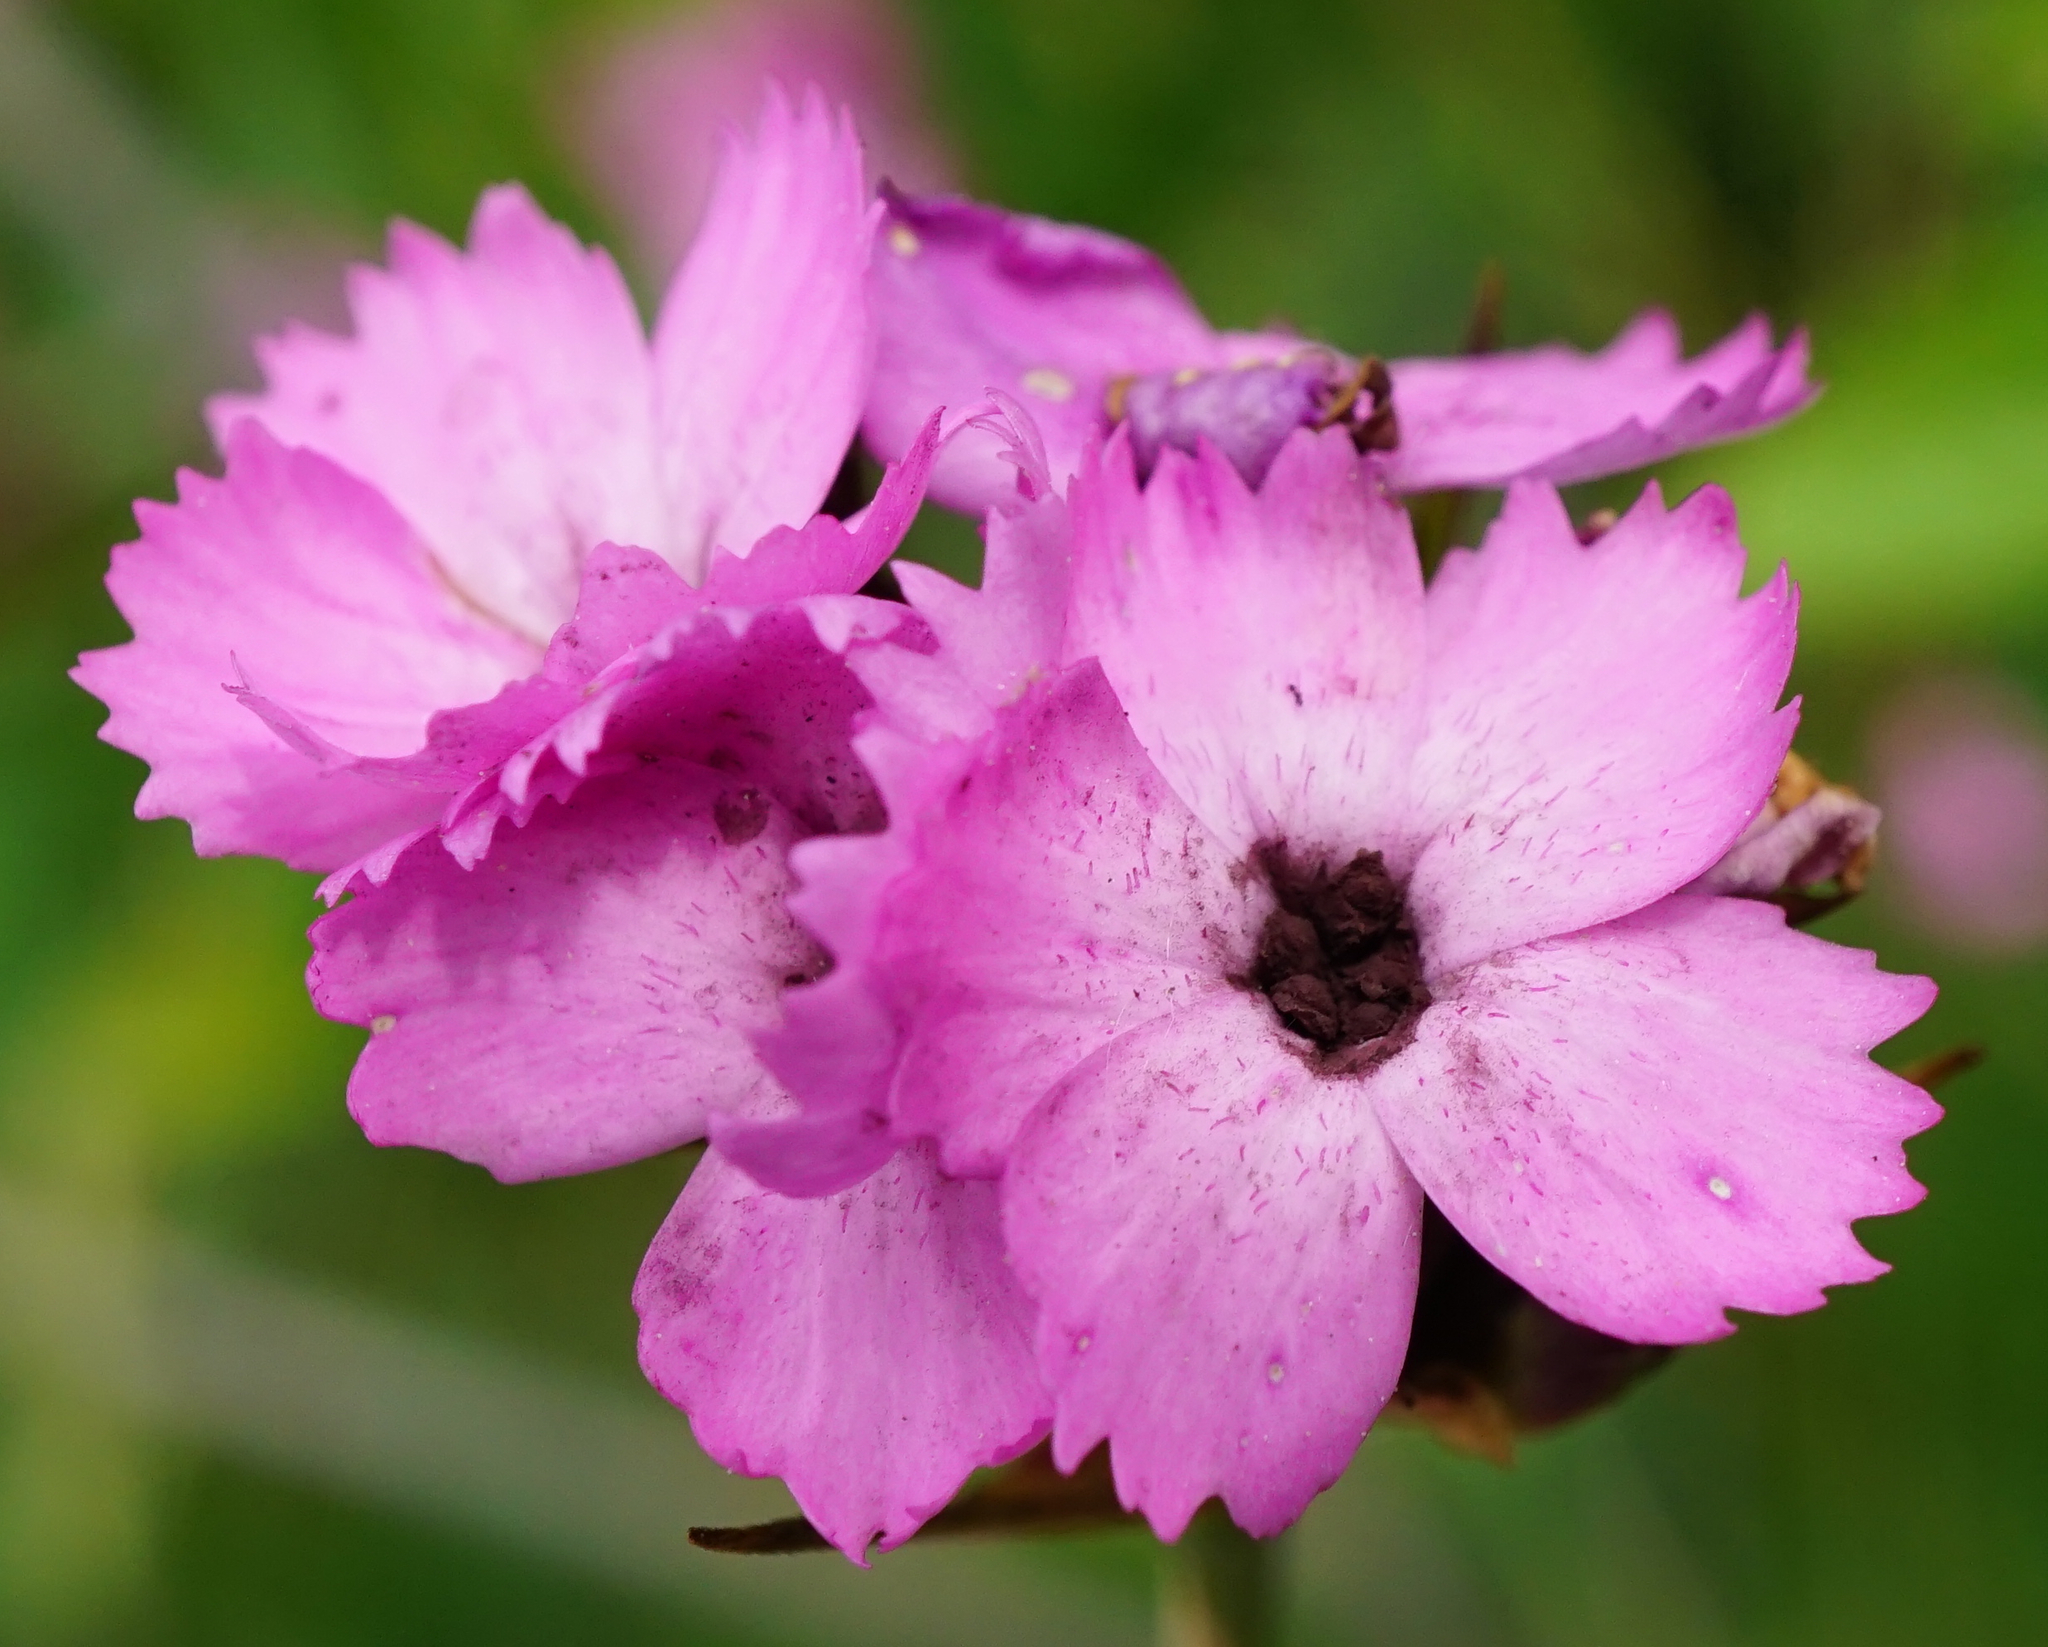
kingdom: Plantae
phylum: Tracheophyta
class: Magnoliopsida
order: Caryophyllales
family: Caryophyllaceae
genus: Dianthus
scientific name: Dianthus pontederae
